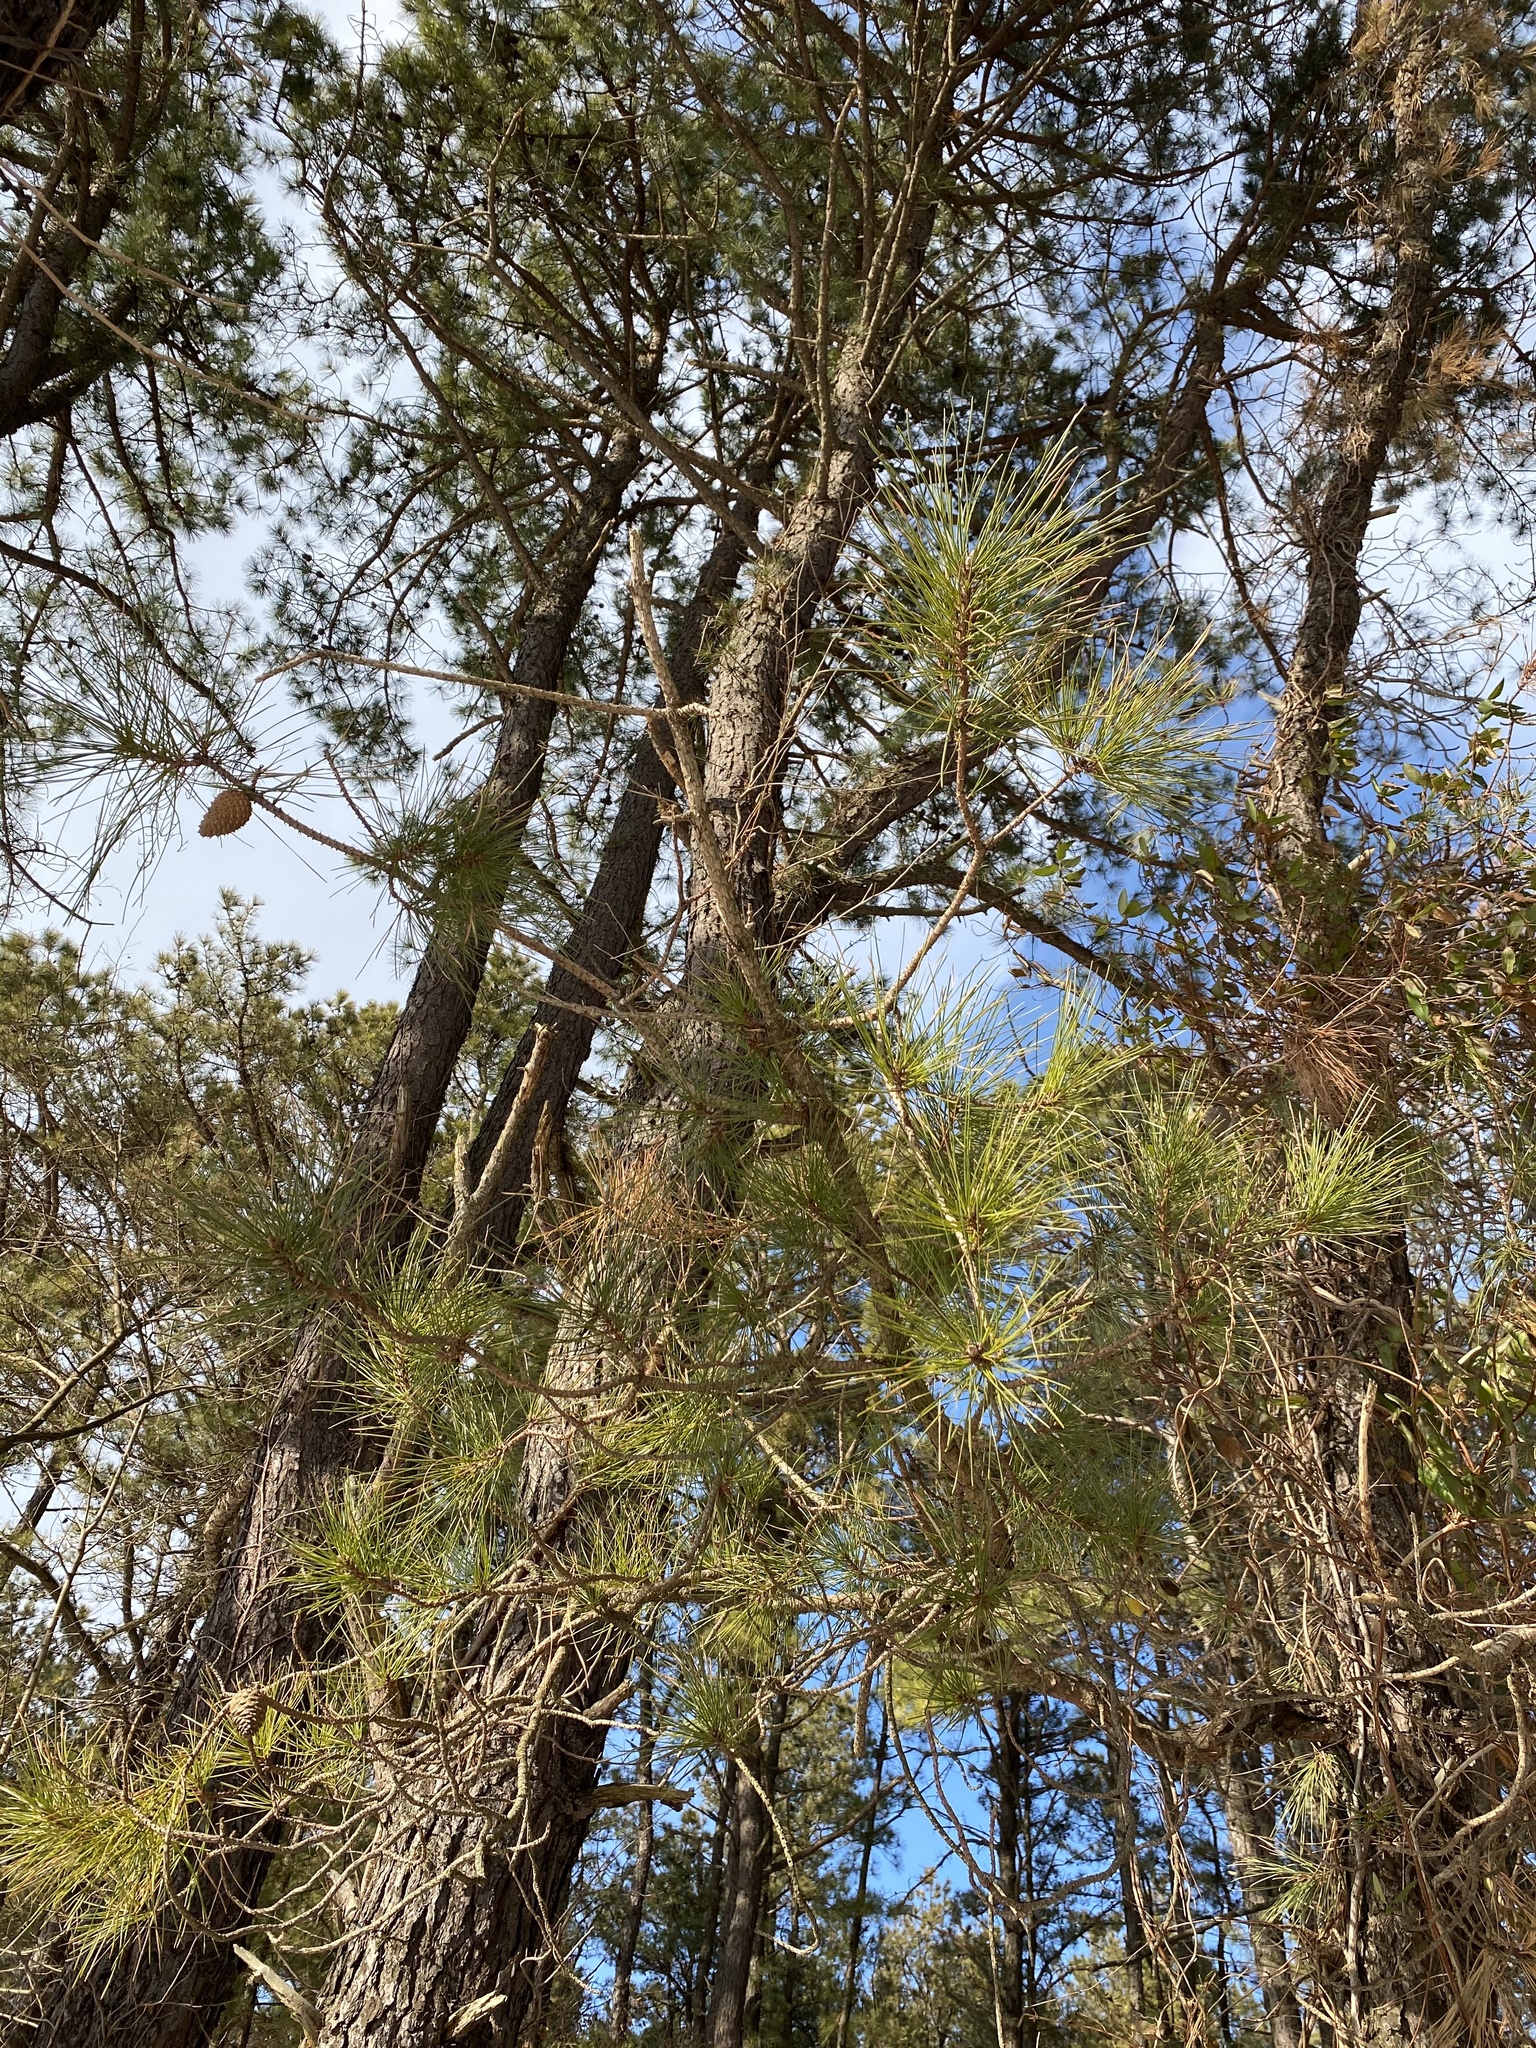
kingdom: Plantae
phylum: Tracheophyta
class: Pinopsida
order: Pinales
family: Pinaceae
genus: Pinus
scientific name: Pinus rigida
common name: Pitch pine
